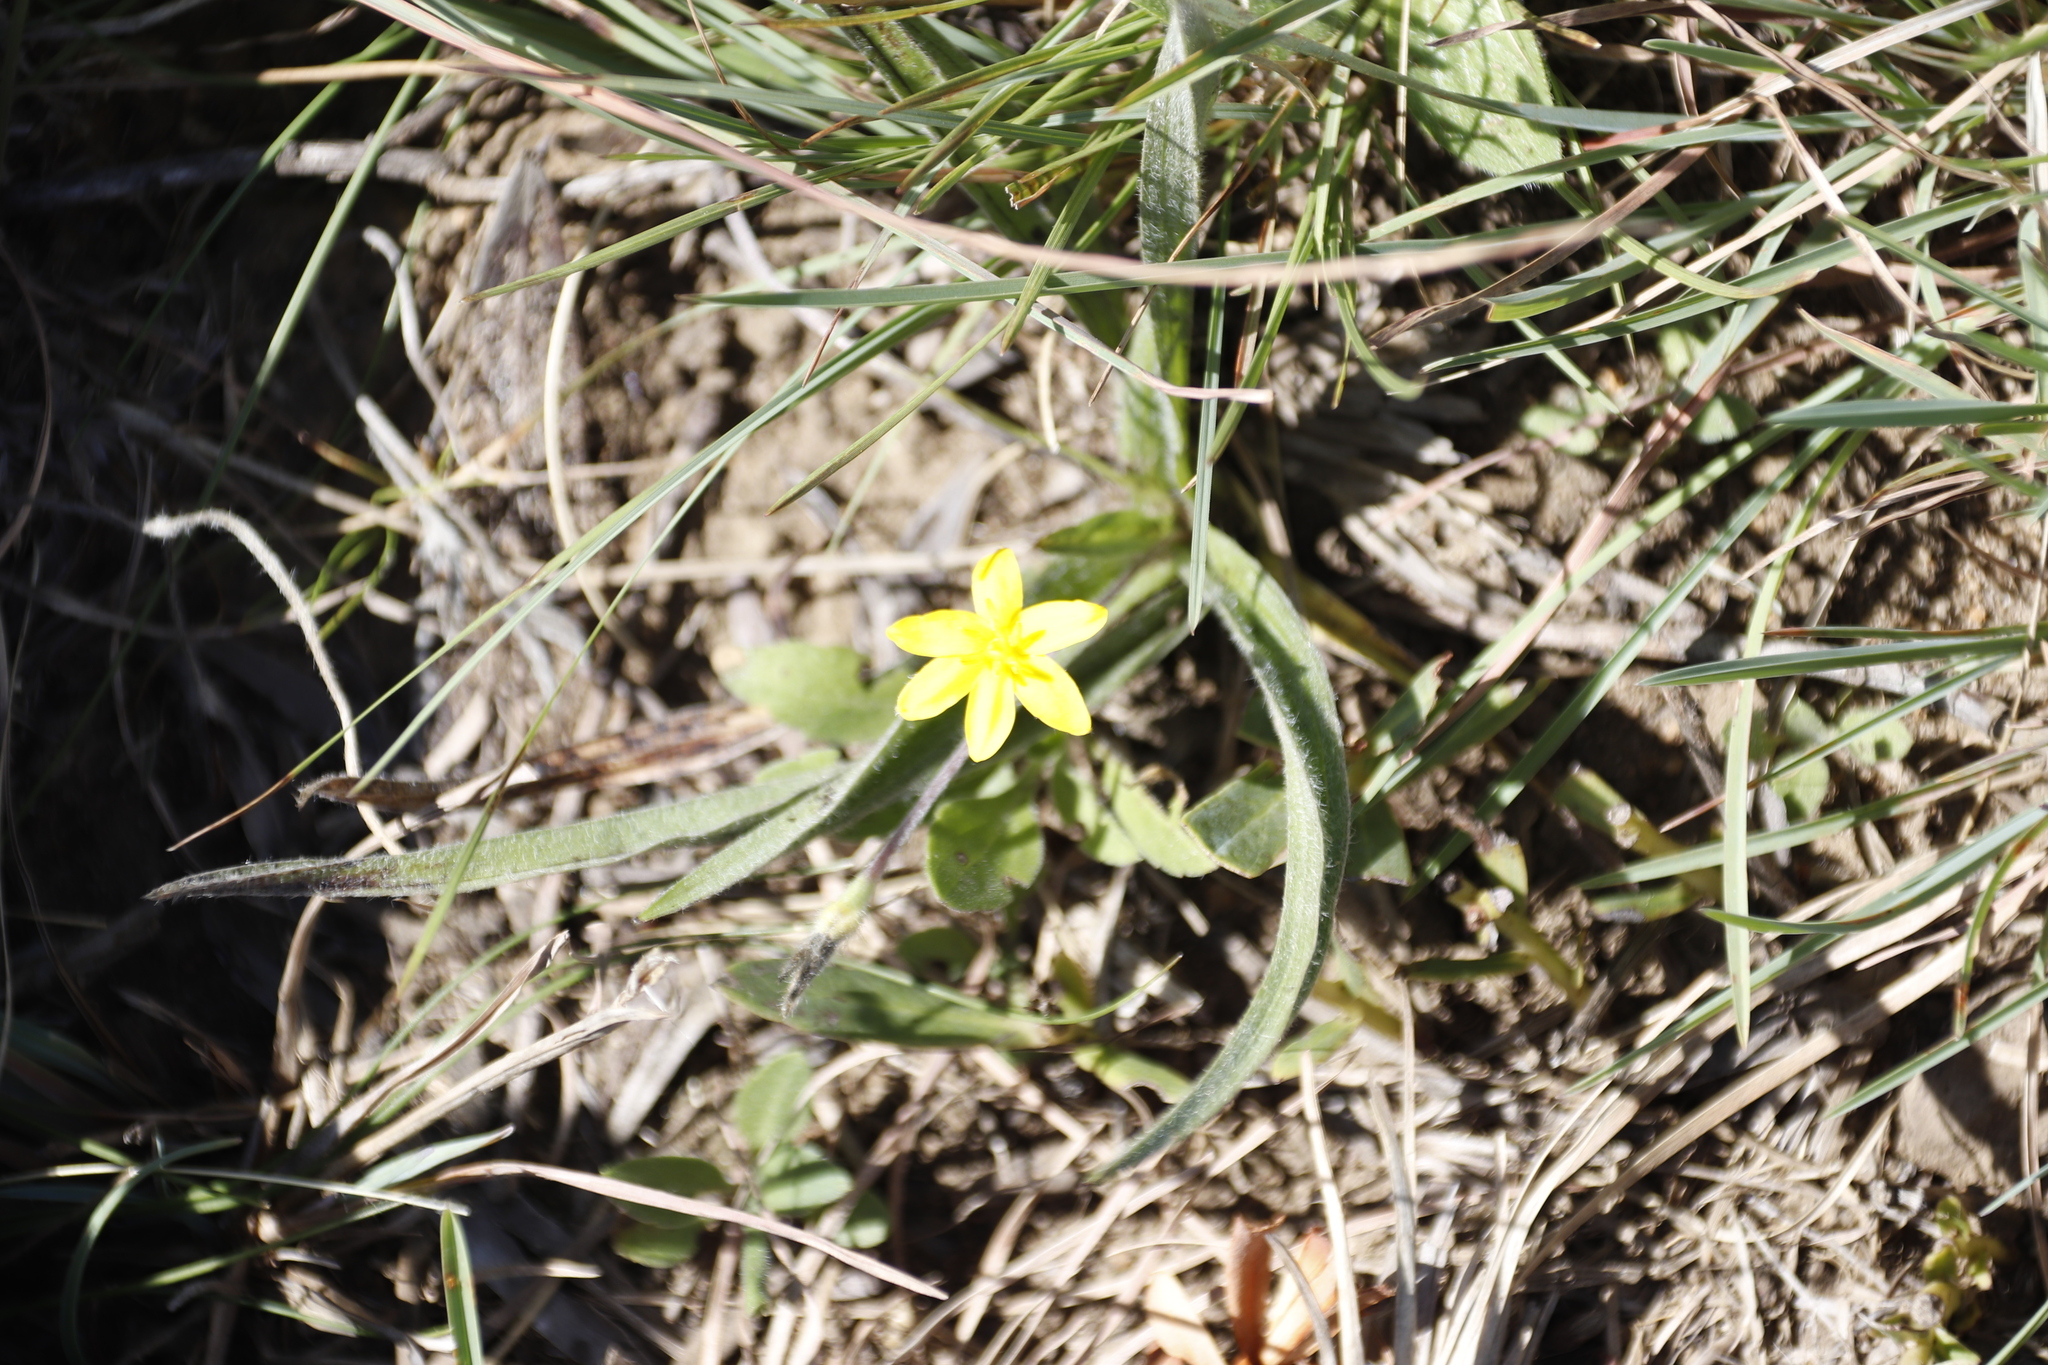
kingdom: Plantae
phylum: Tracheophyta
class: Liliopsida
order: Asparagales
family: Hypoxidaceae
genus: Hypoxis
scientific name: Hypoxis argentea
